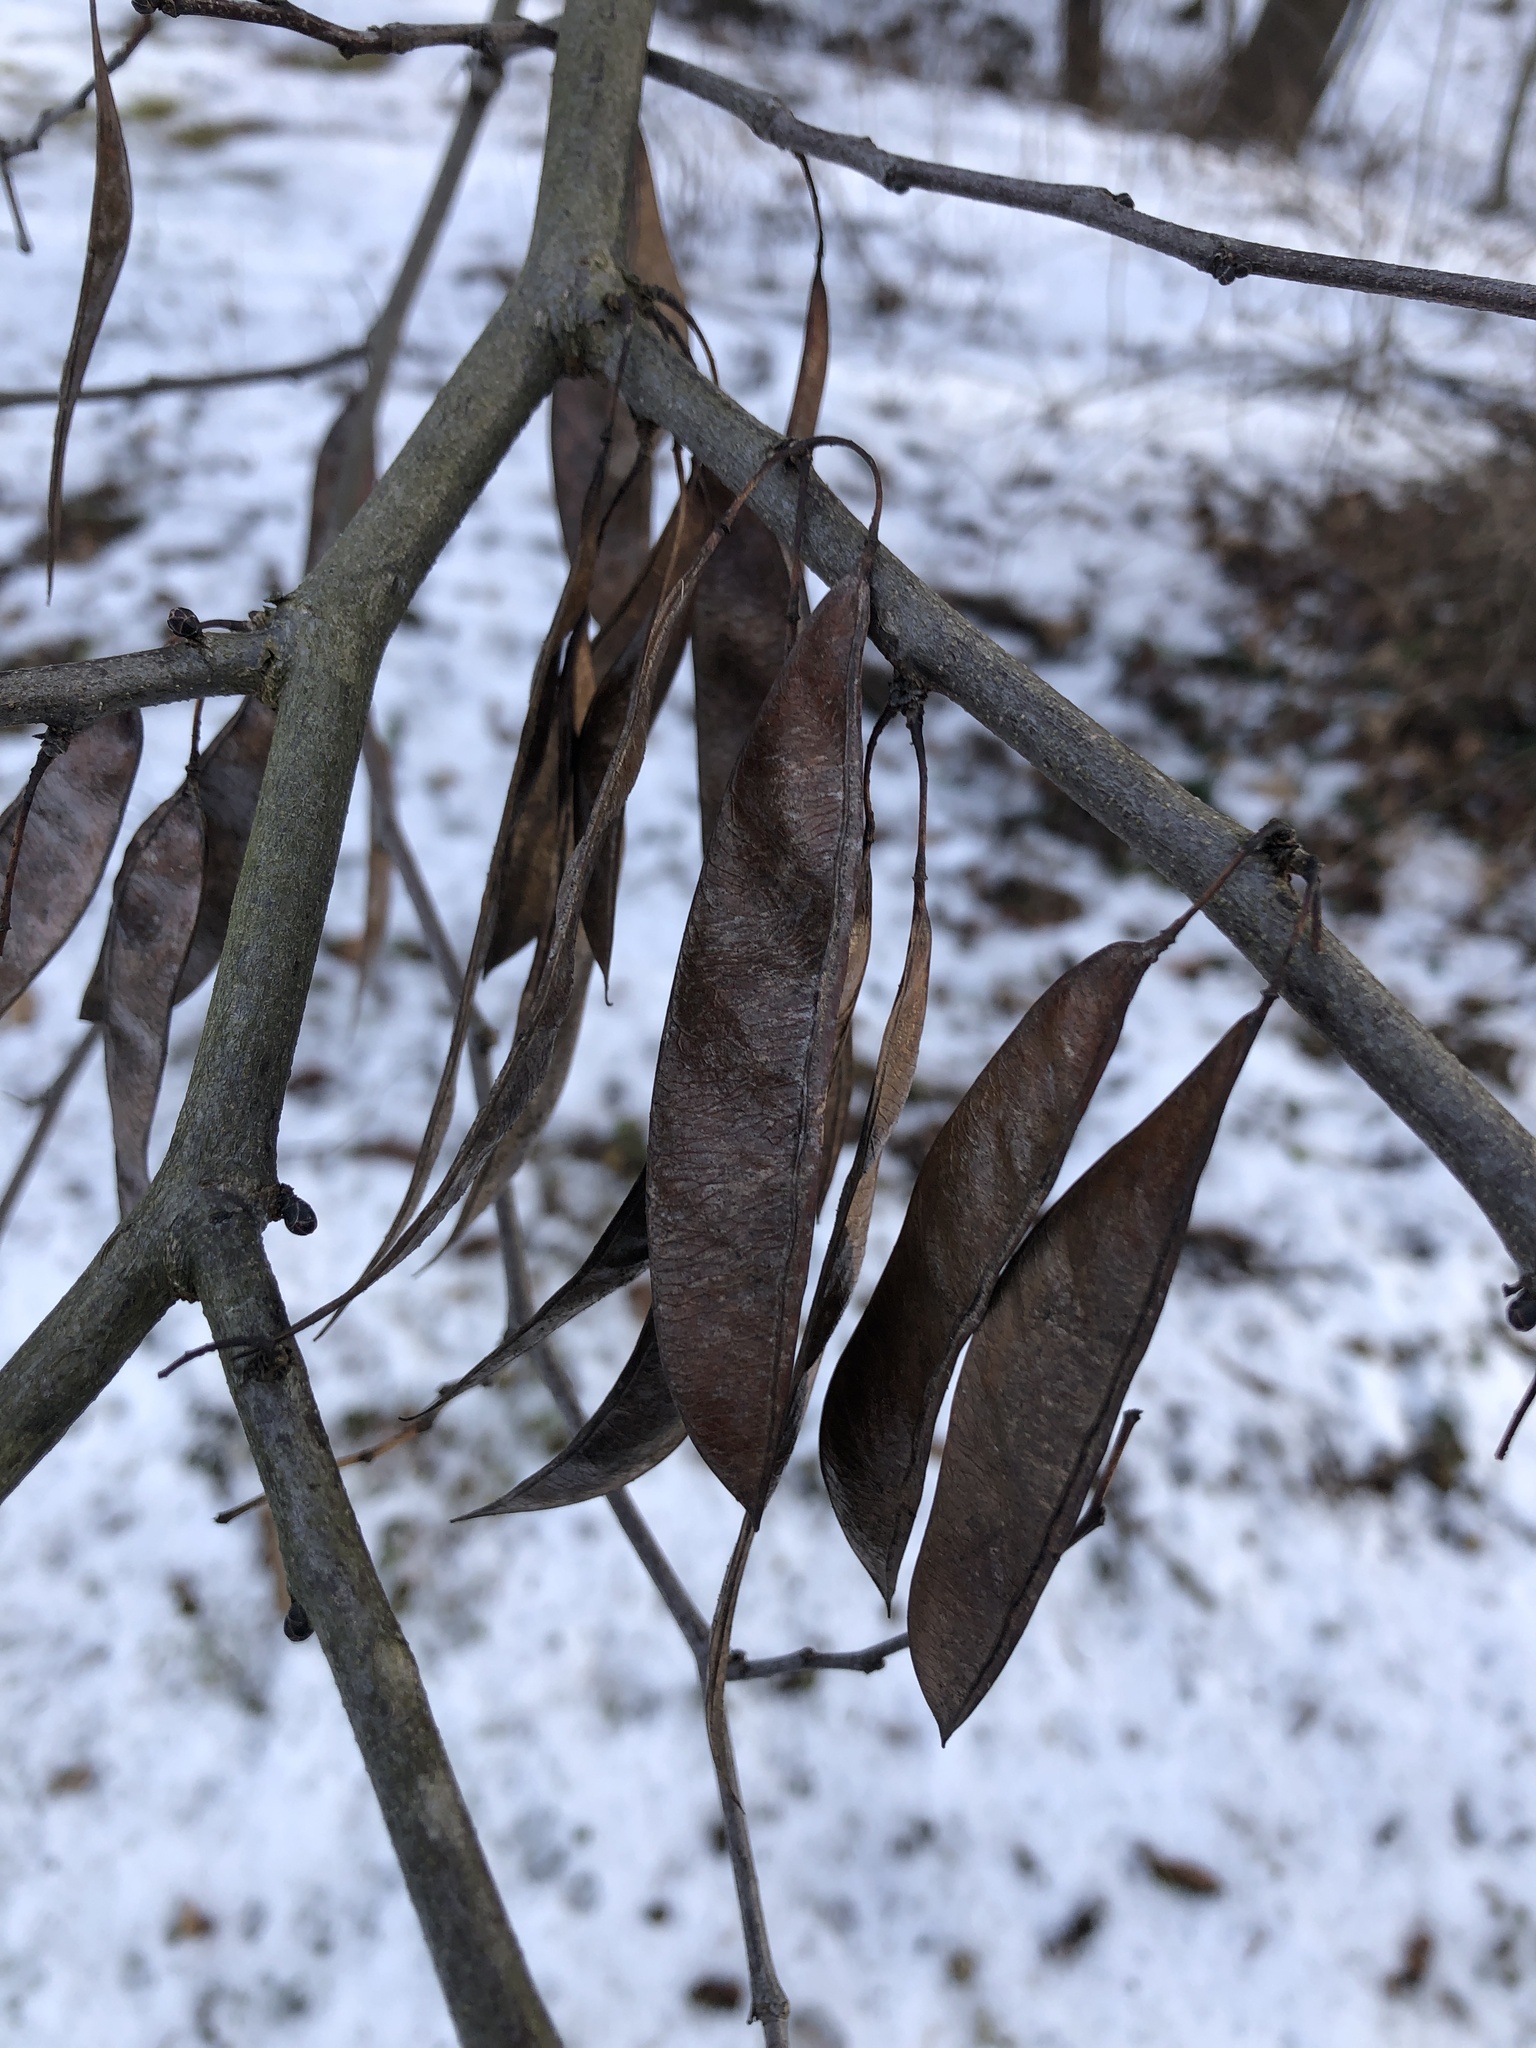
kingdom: Plantae
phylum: Tracheophyta
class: Magnoliopsida
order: Fabales
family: Fabaceae
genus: Cercis
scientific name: Cercis canadensis
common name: Eastern redbud
